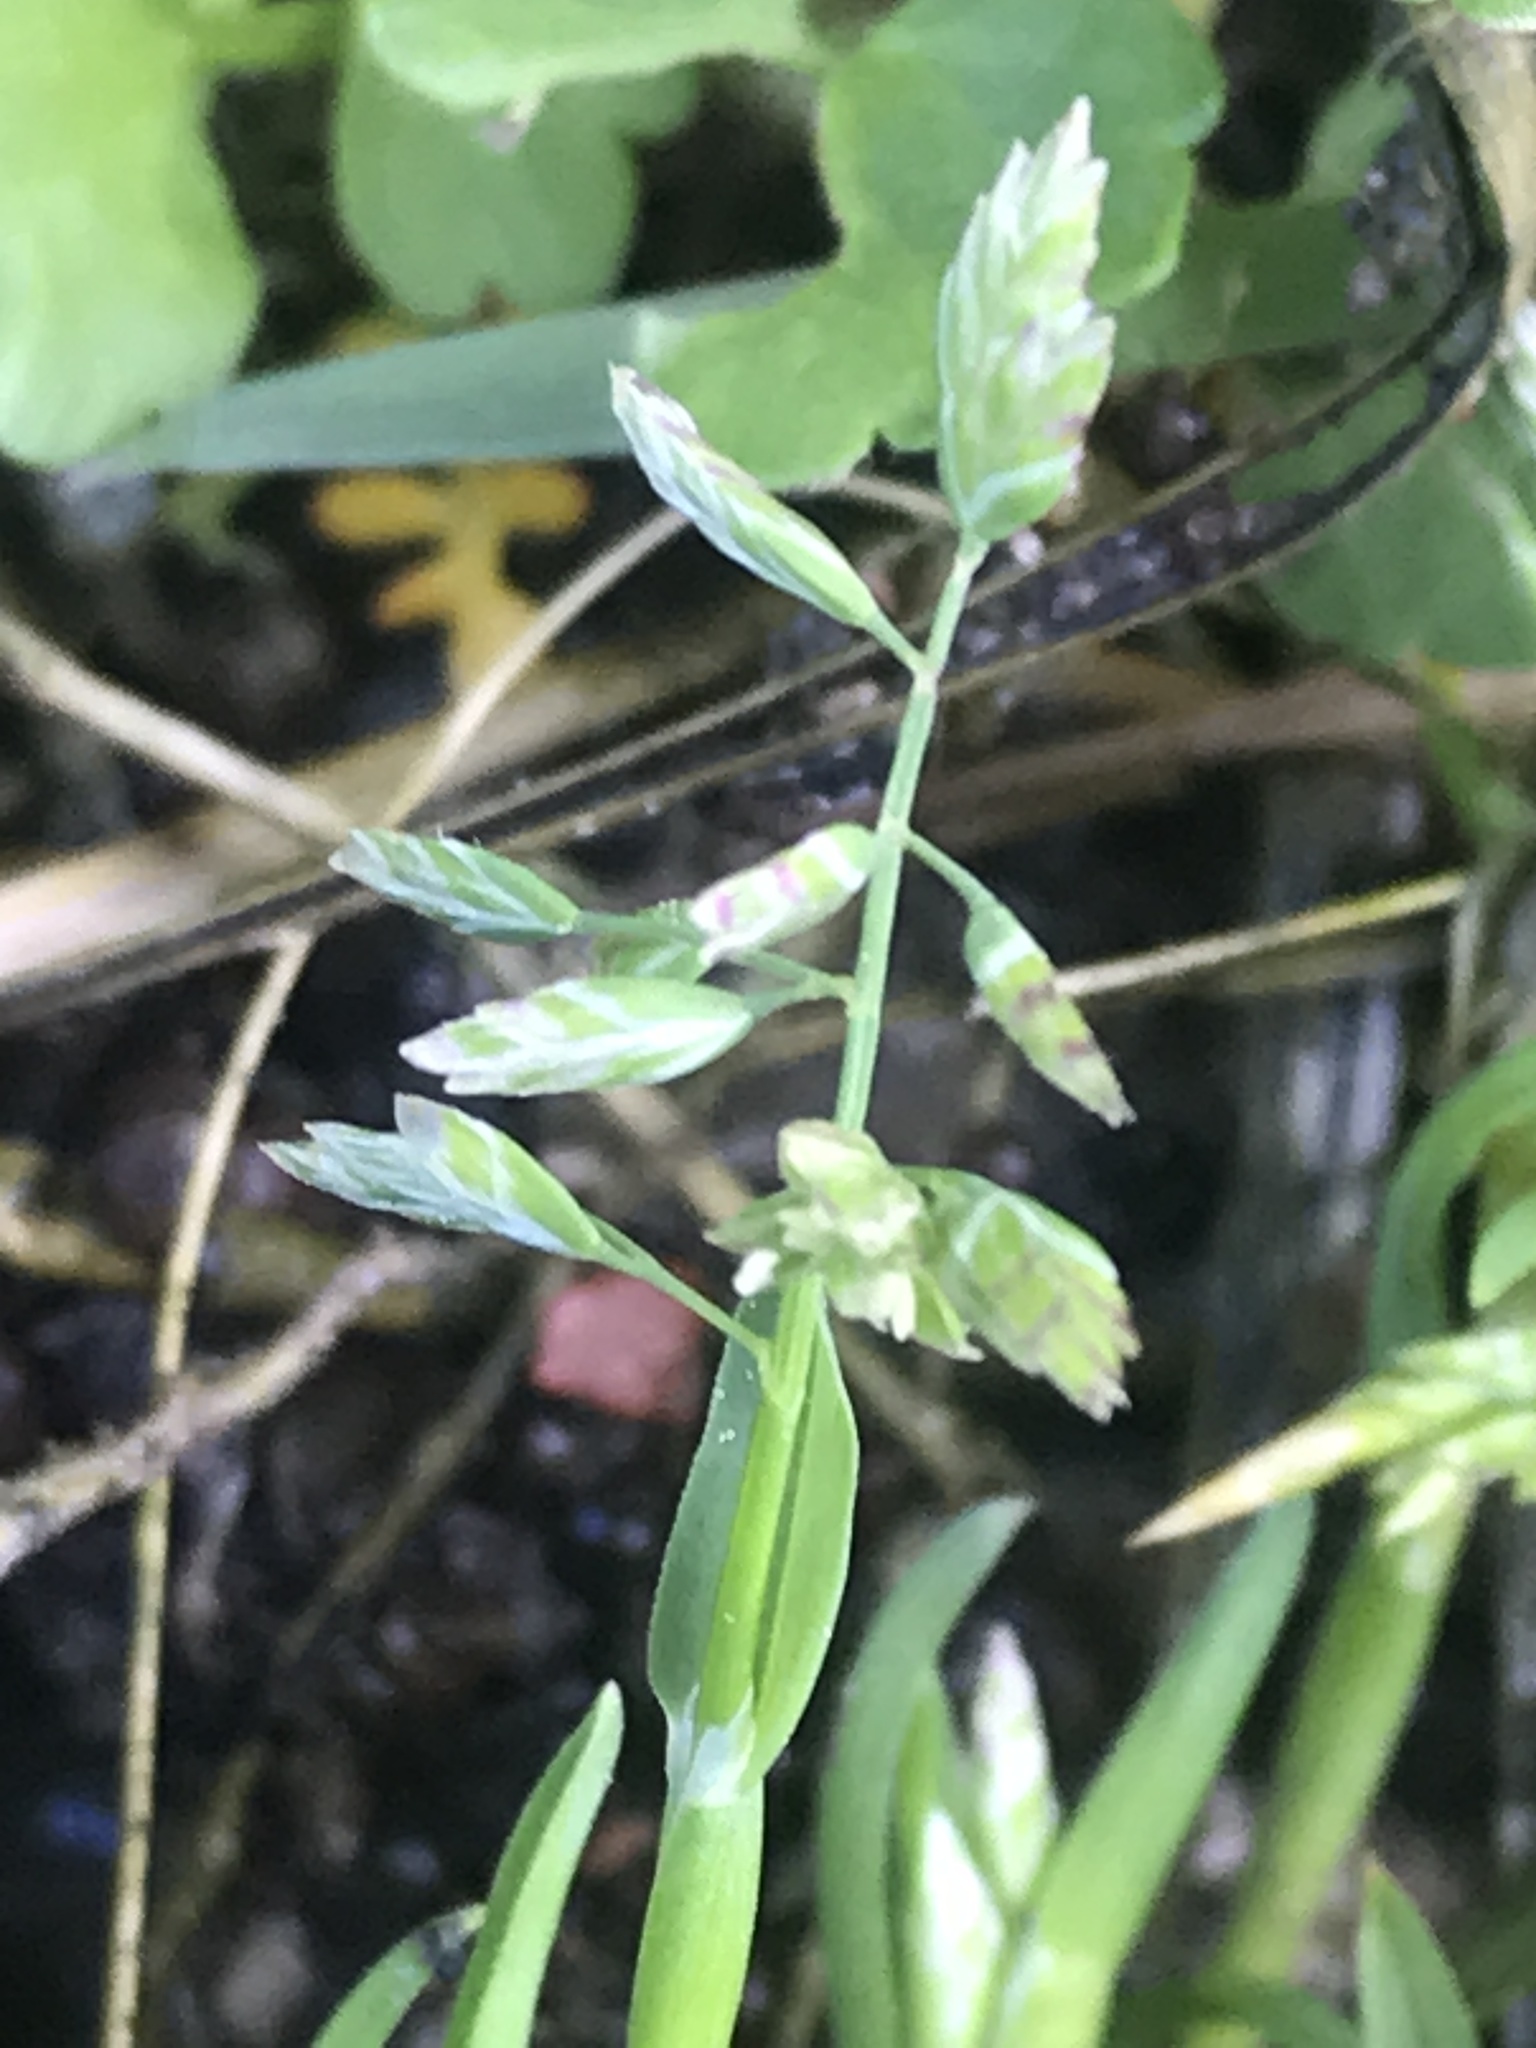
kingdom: Plantae
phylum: Tracheophyta
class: Liliopsida
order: Poales
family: Poaceae
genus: Poa
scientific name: Poa annua
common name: Annual bluegrass
